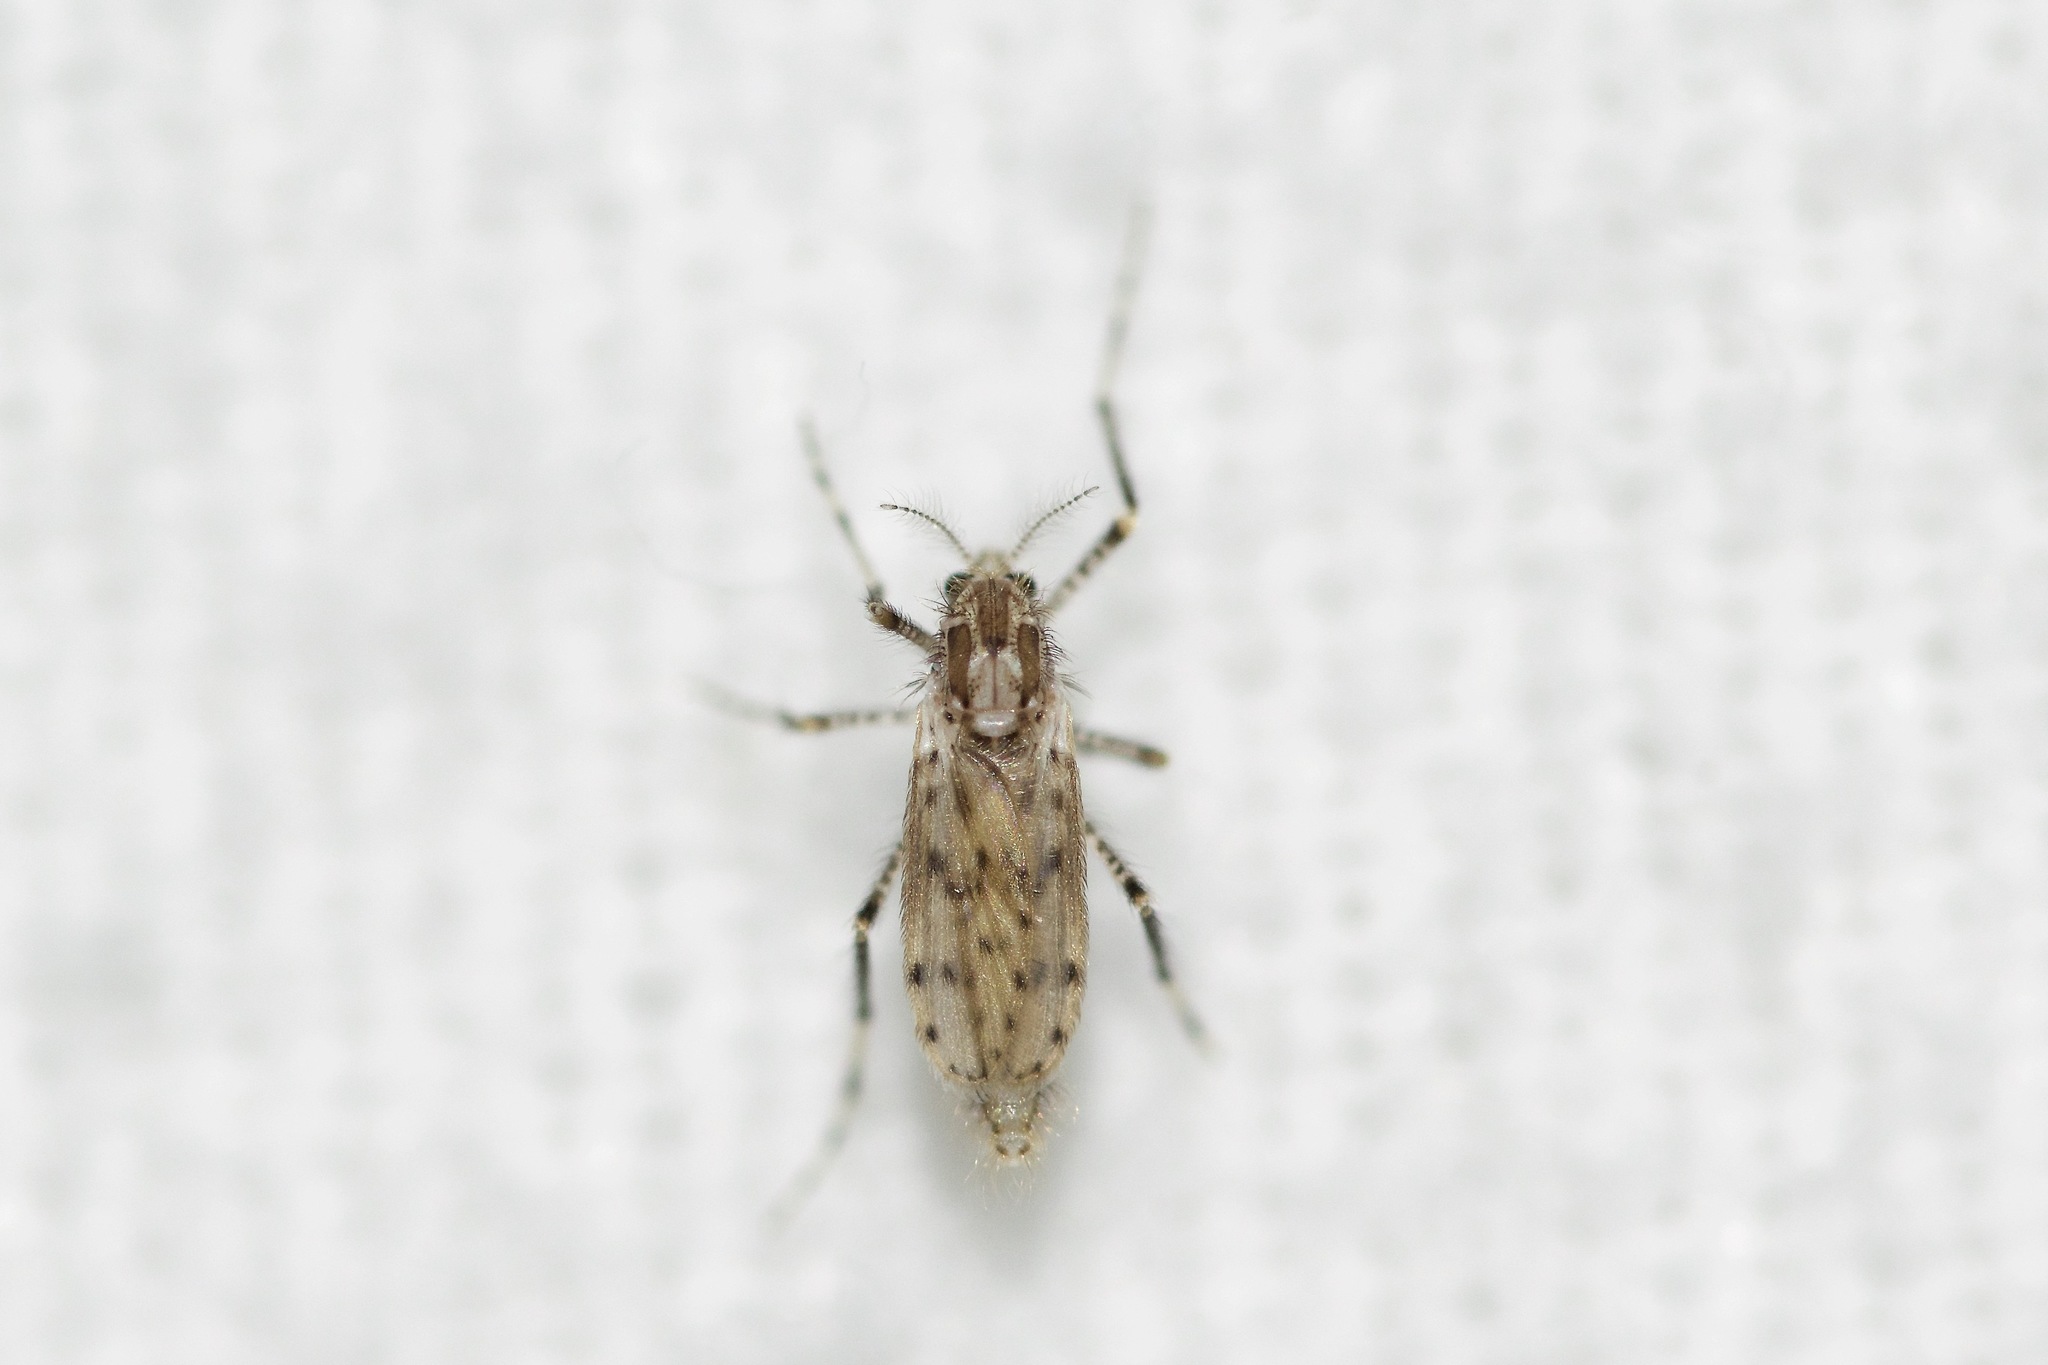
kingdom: Animalia
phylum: Arthropoda
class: Insecta
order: Diptera
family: Chaoboridae
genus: Chaoborus
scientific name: Chaoborus punctipennis
